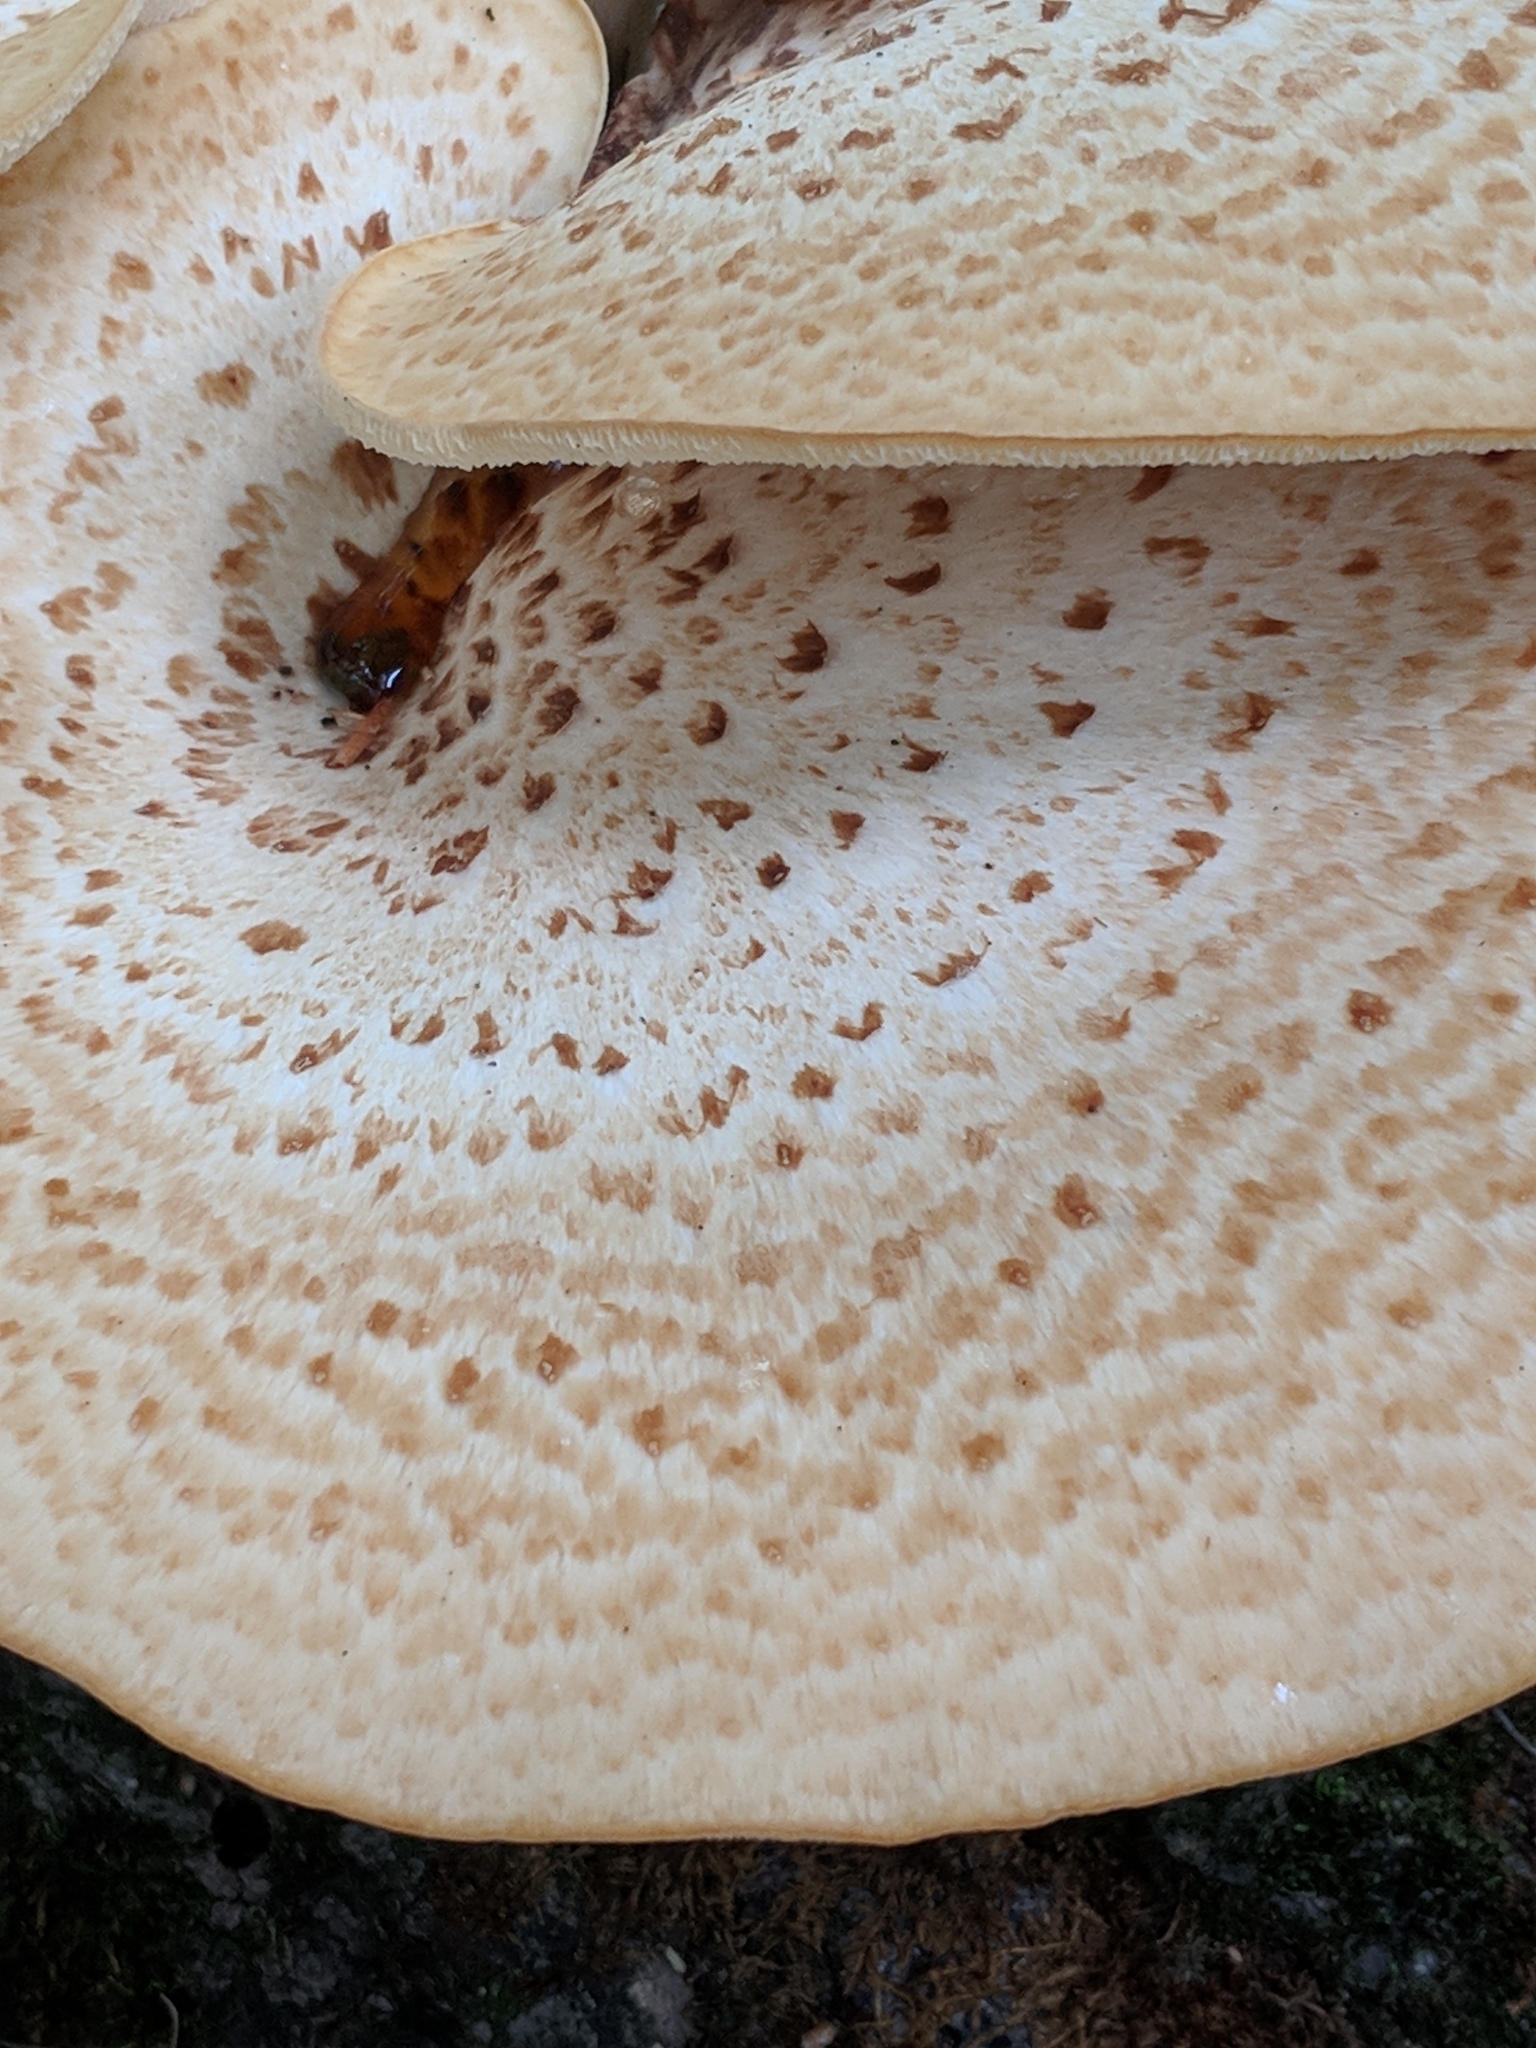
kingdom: Fungi
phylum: Basidiomycota
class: Agaricomycetes
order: Polyporales
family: Polyporaceae
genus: Cerioporus
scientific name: Cerioporus squamosus
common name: Dryad's saddle
